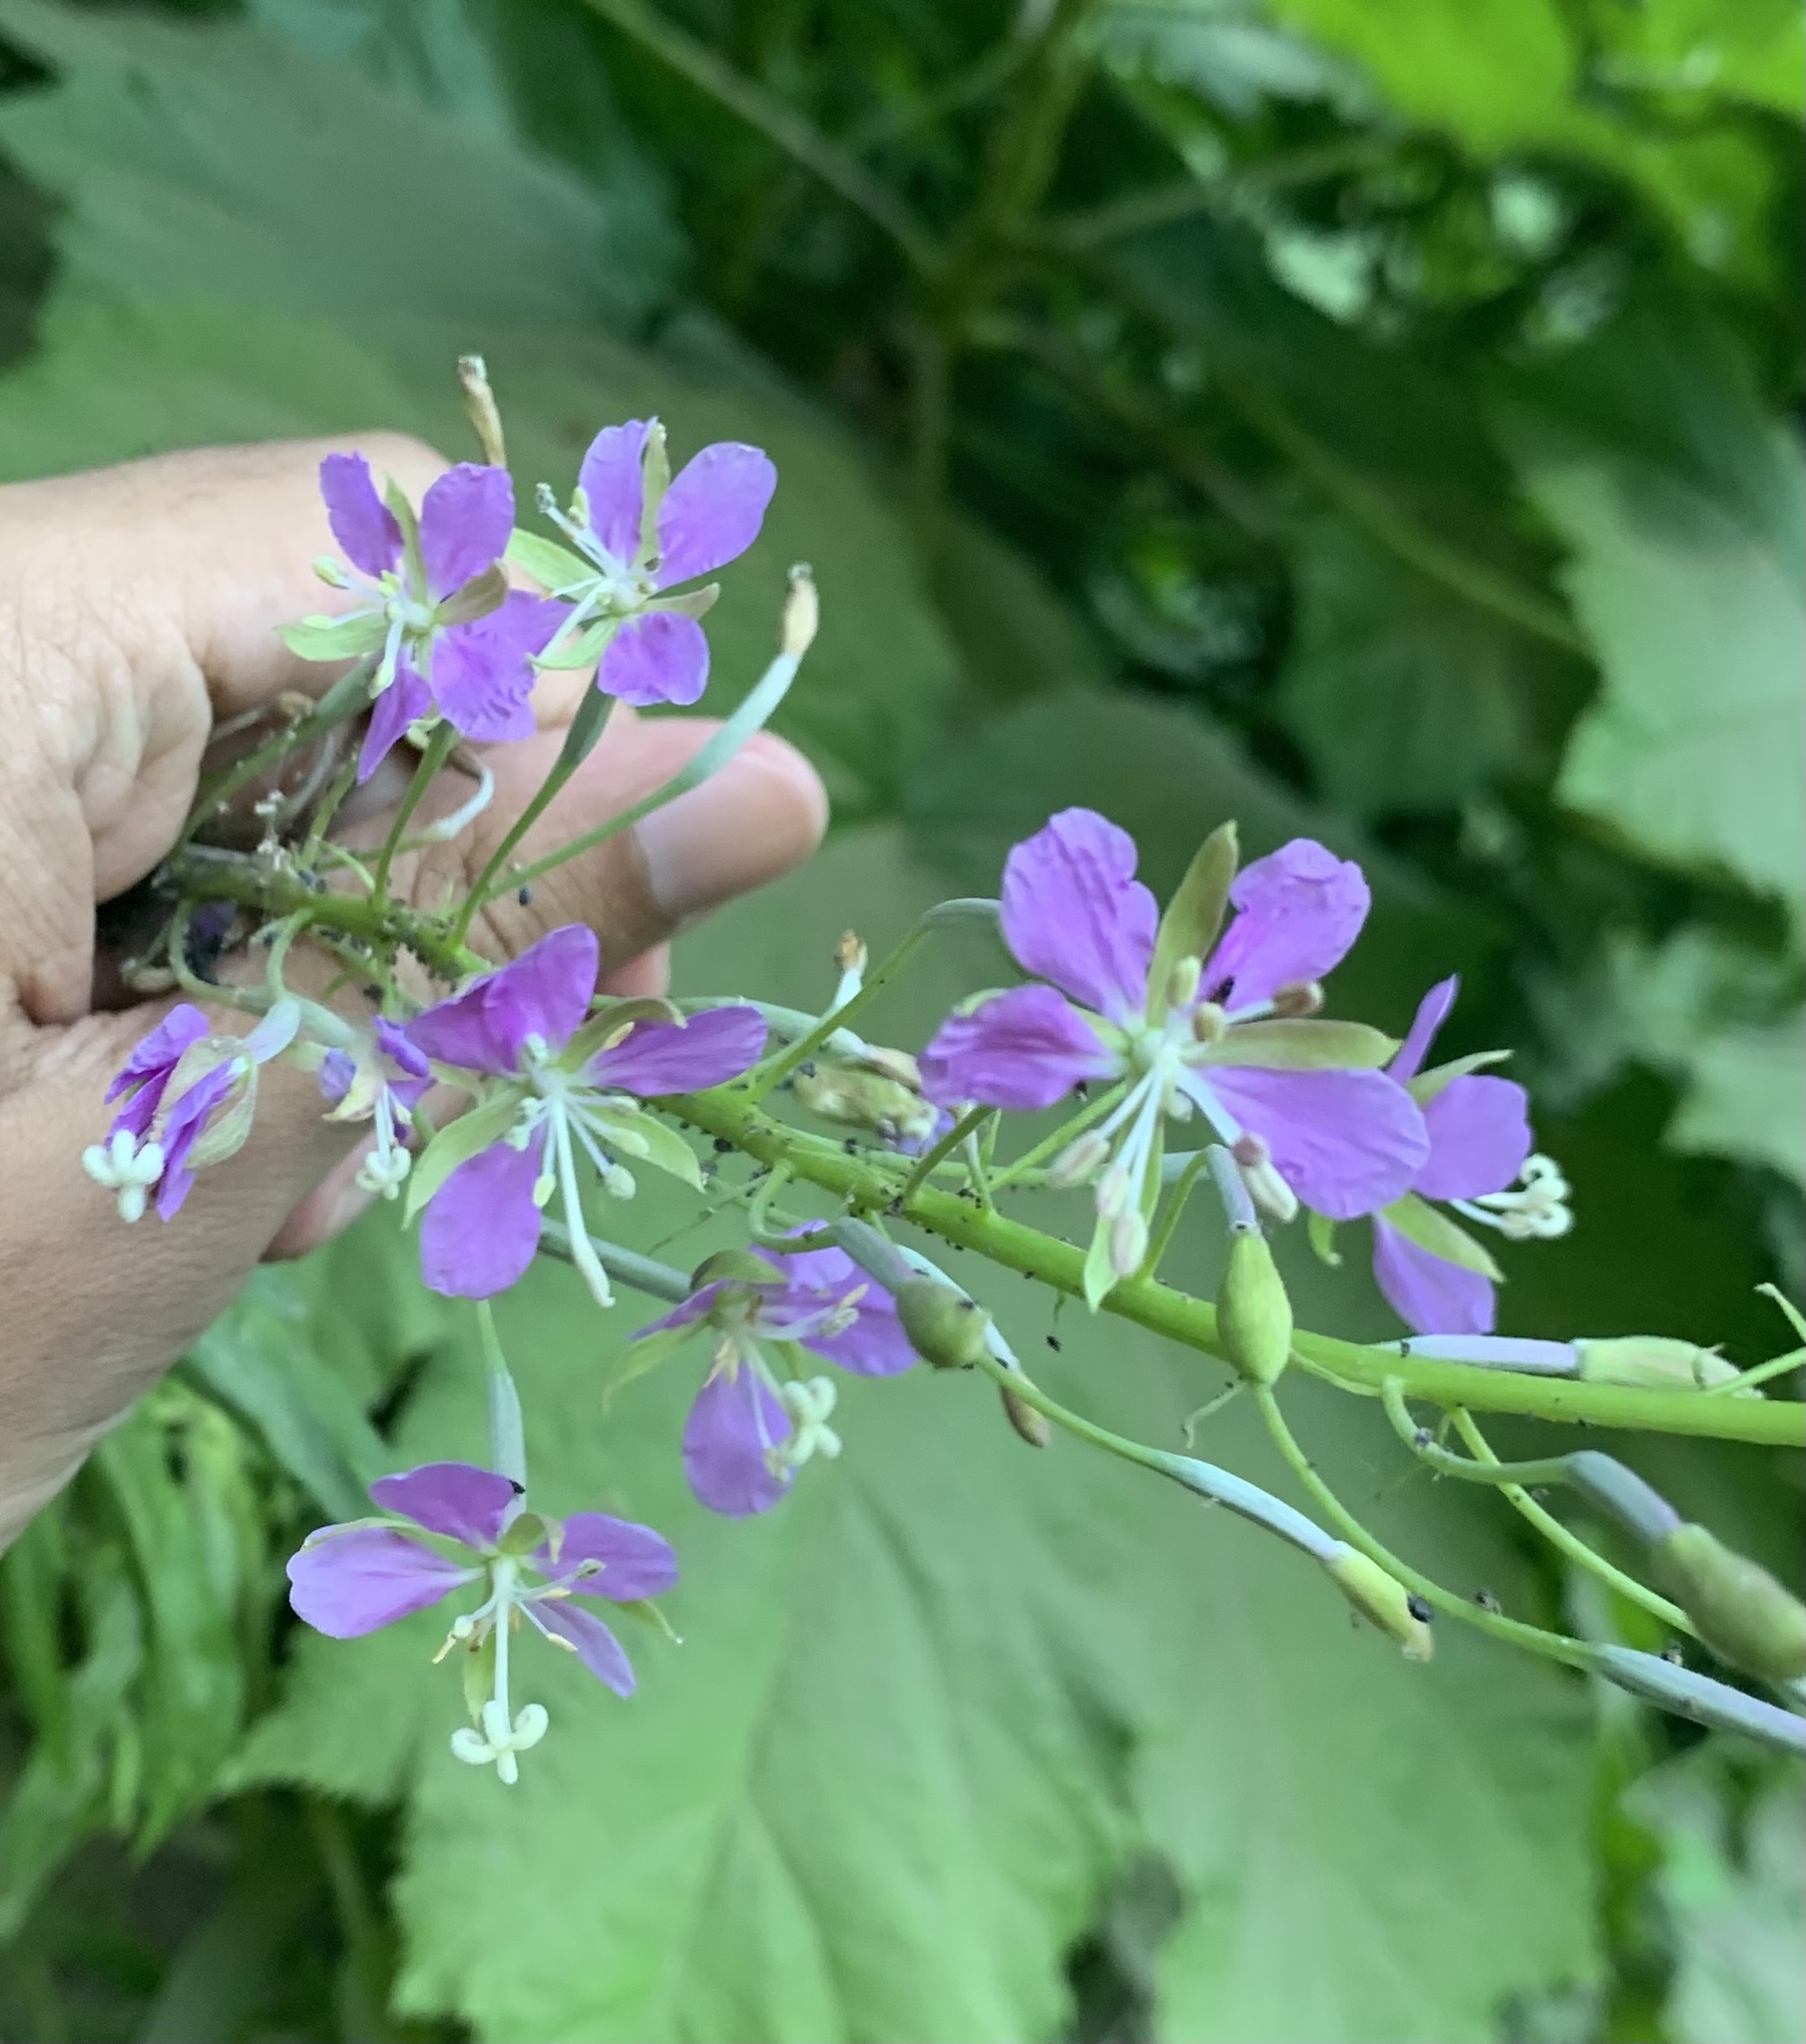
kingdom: Plantae
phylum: Tracheophyta
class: Magnoliopsida
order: Myrtales
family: Onagraceae
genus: Chamaenerion
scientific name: Chamaenerion angustifolium
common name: Fireweed
